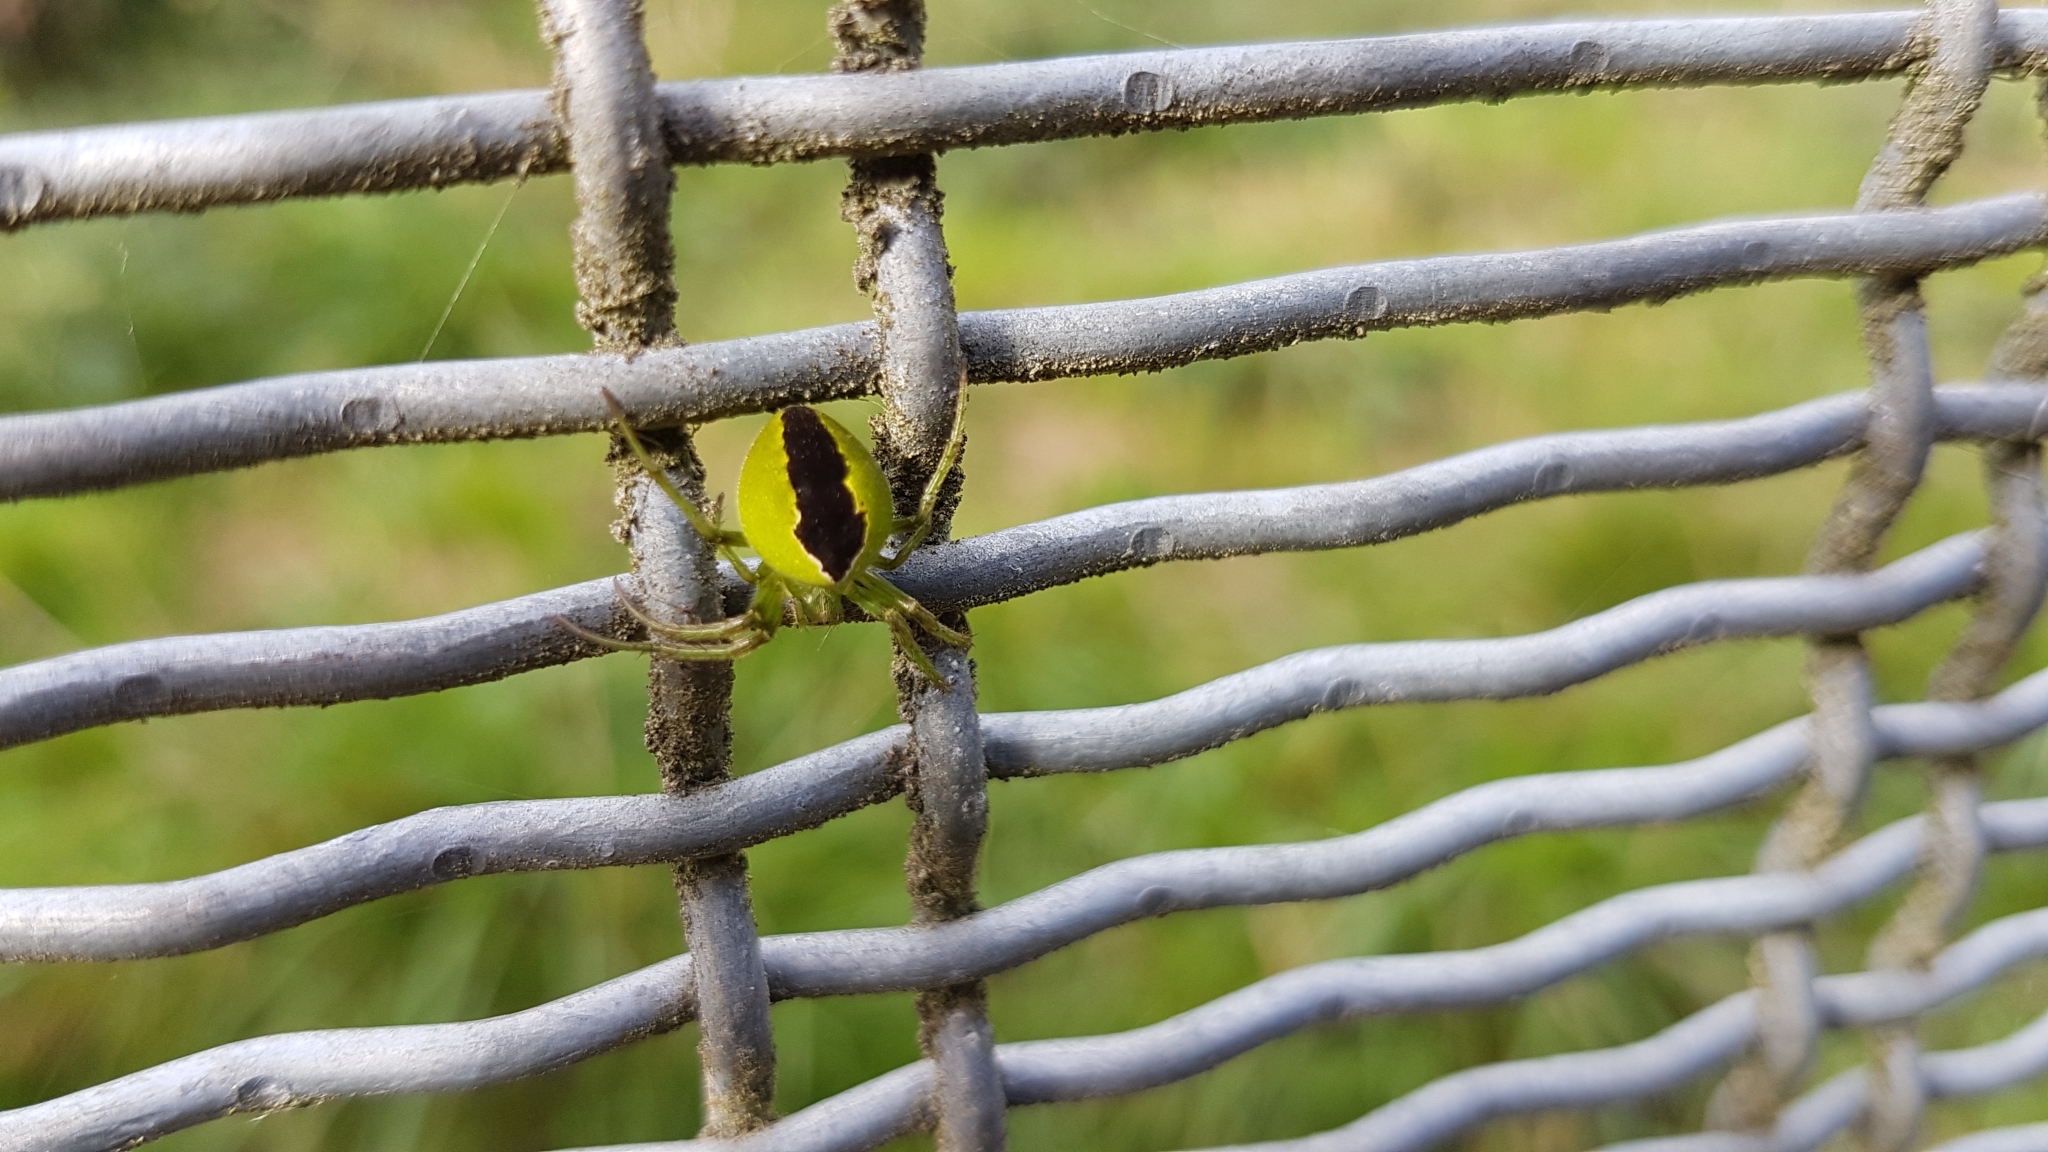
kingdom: Animalia
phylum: Arthropoda
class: Arachnida
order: Araneae
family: Araneidae
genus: Colaranea
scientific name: Colaranea melanoviridis
